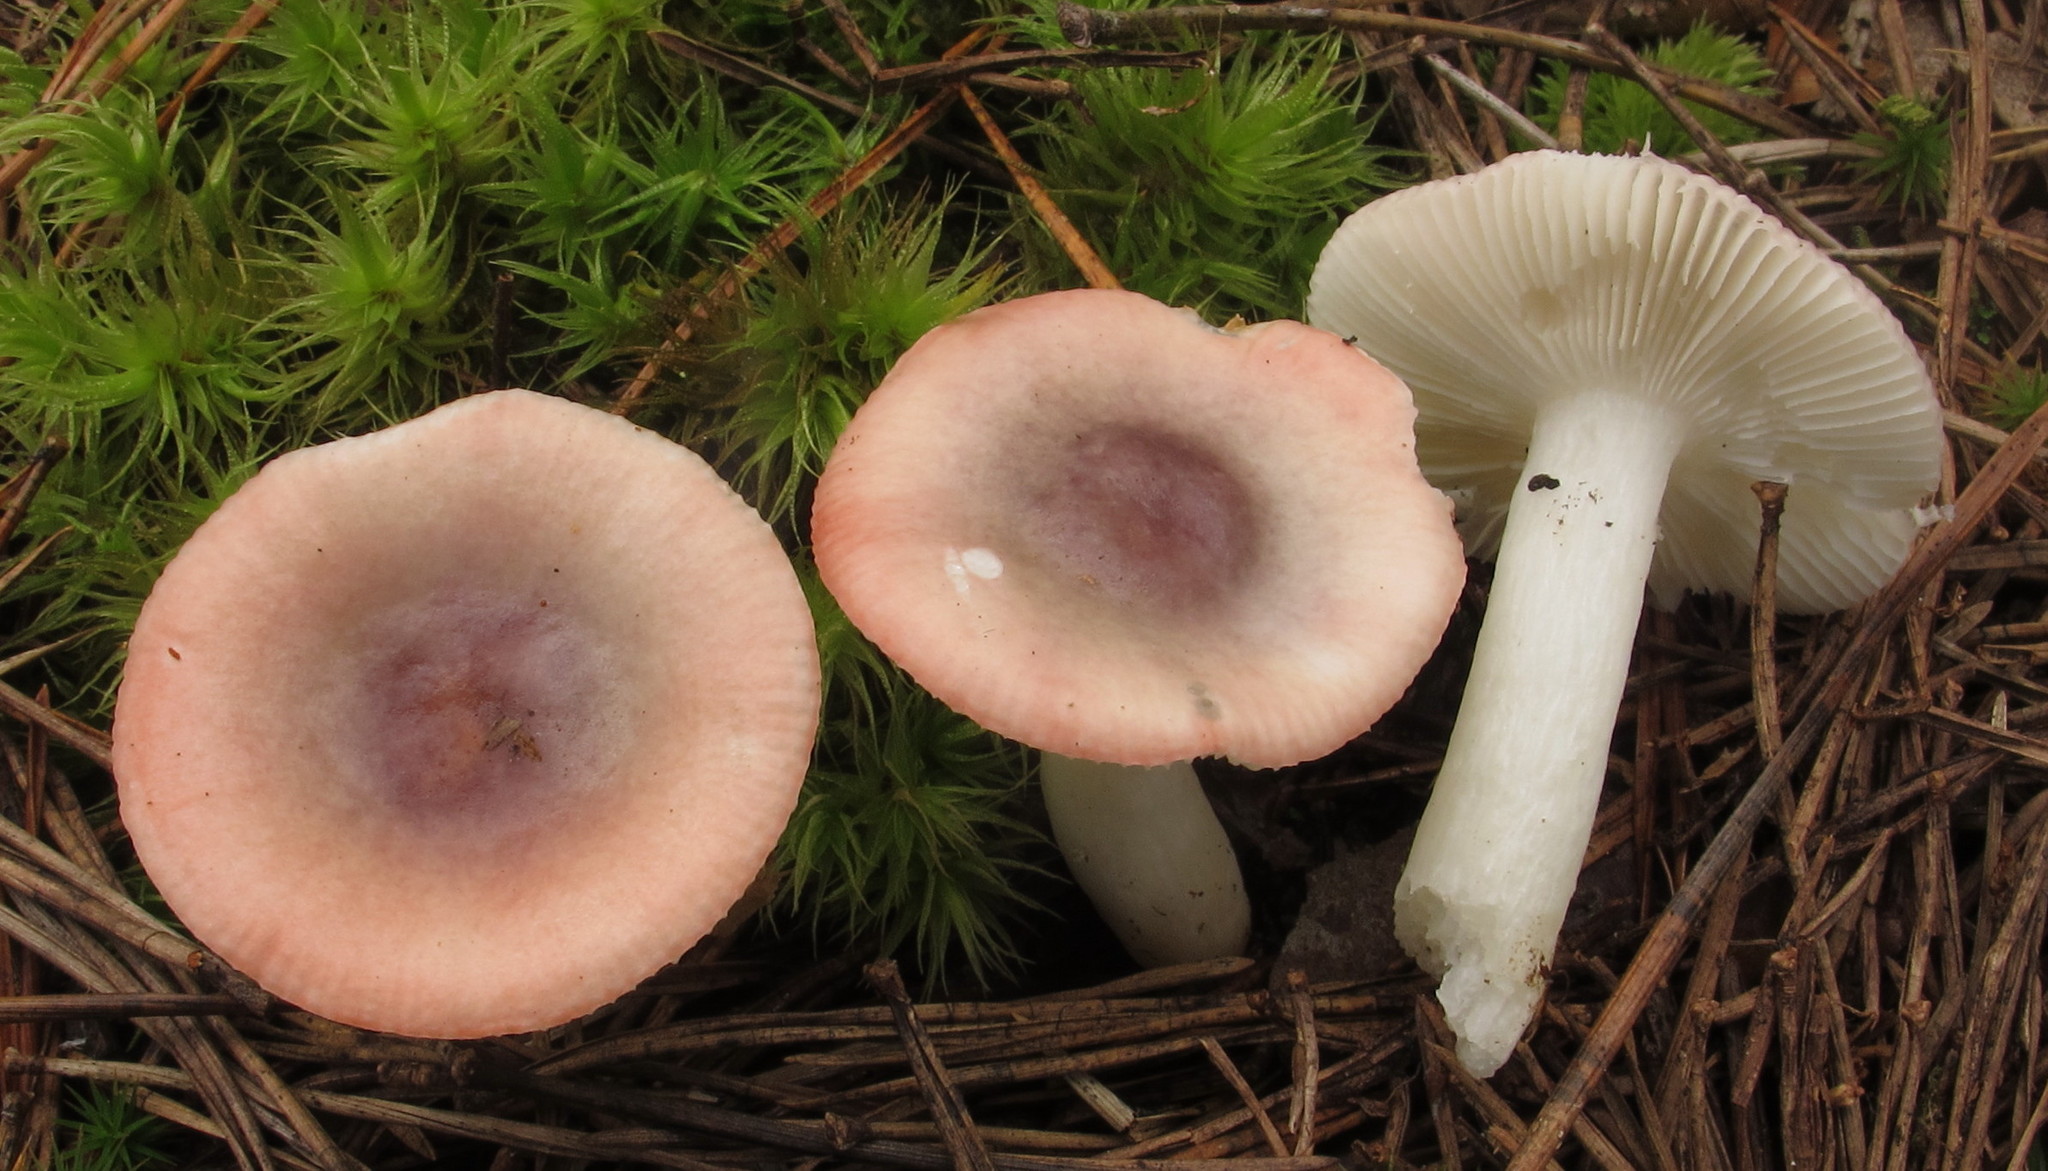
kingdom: Fungi
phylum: Basidiomycota
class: Agaricomycetes
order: Russulales
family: Russulaceae
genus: Russula
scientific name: Russula fragilis
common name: Fragile brittlegill
